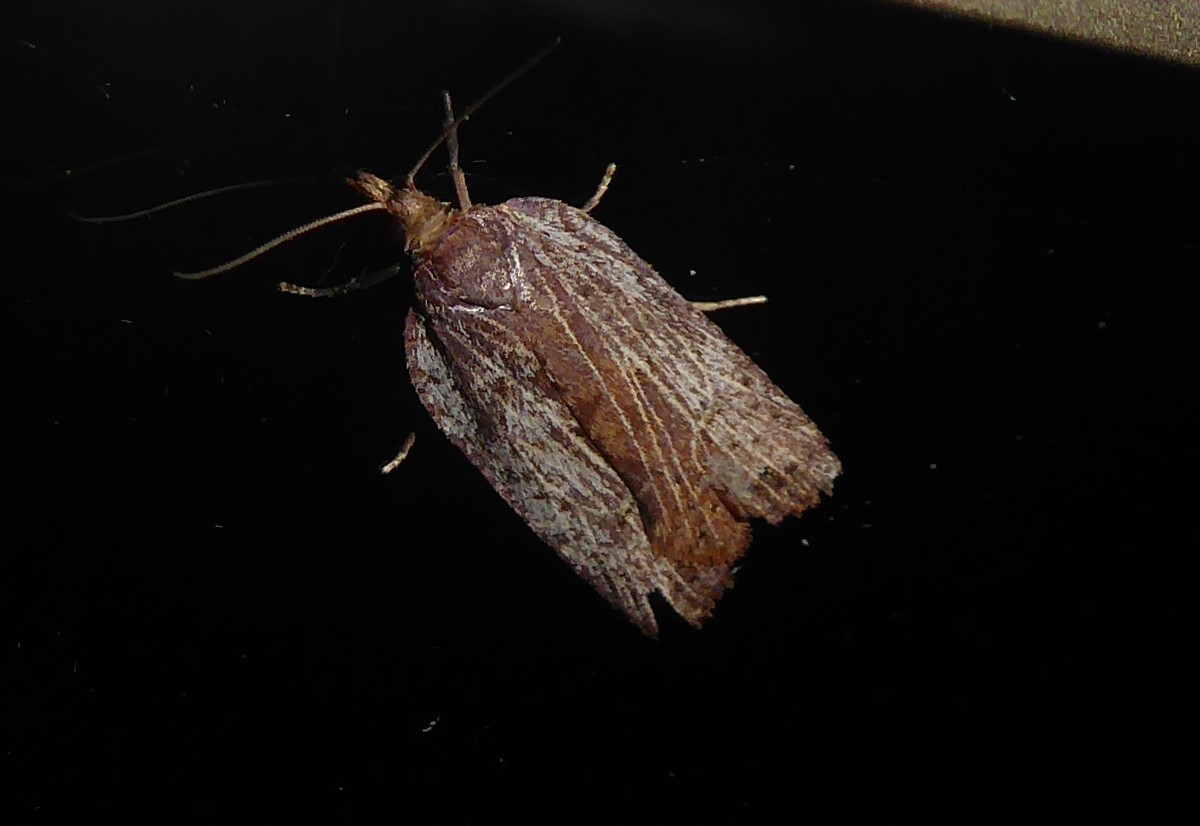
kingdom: Animalia
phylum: Arthropoda
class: Insecta
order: Lepidoptera
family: Tortricidae
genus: Planotortrix
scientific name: Planotortrix notophaea
